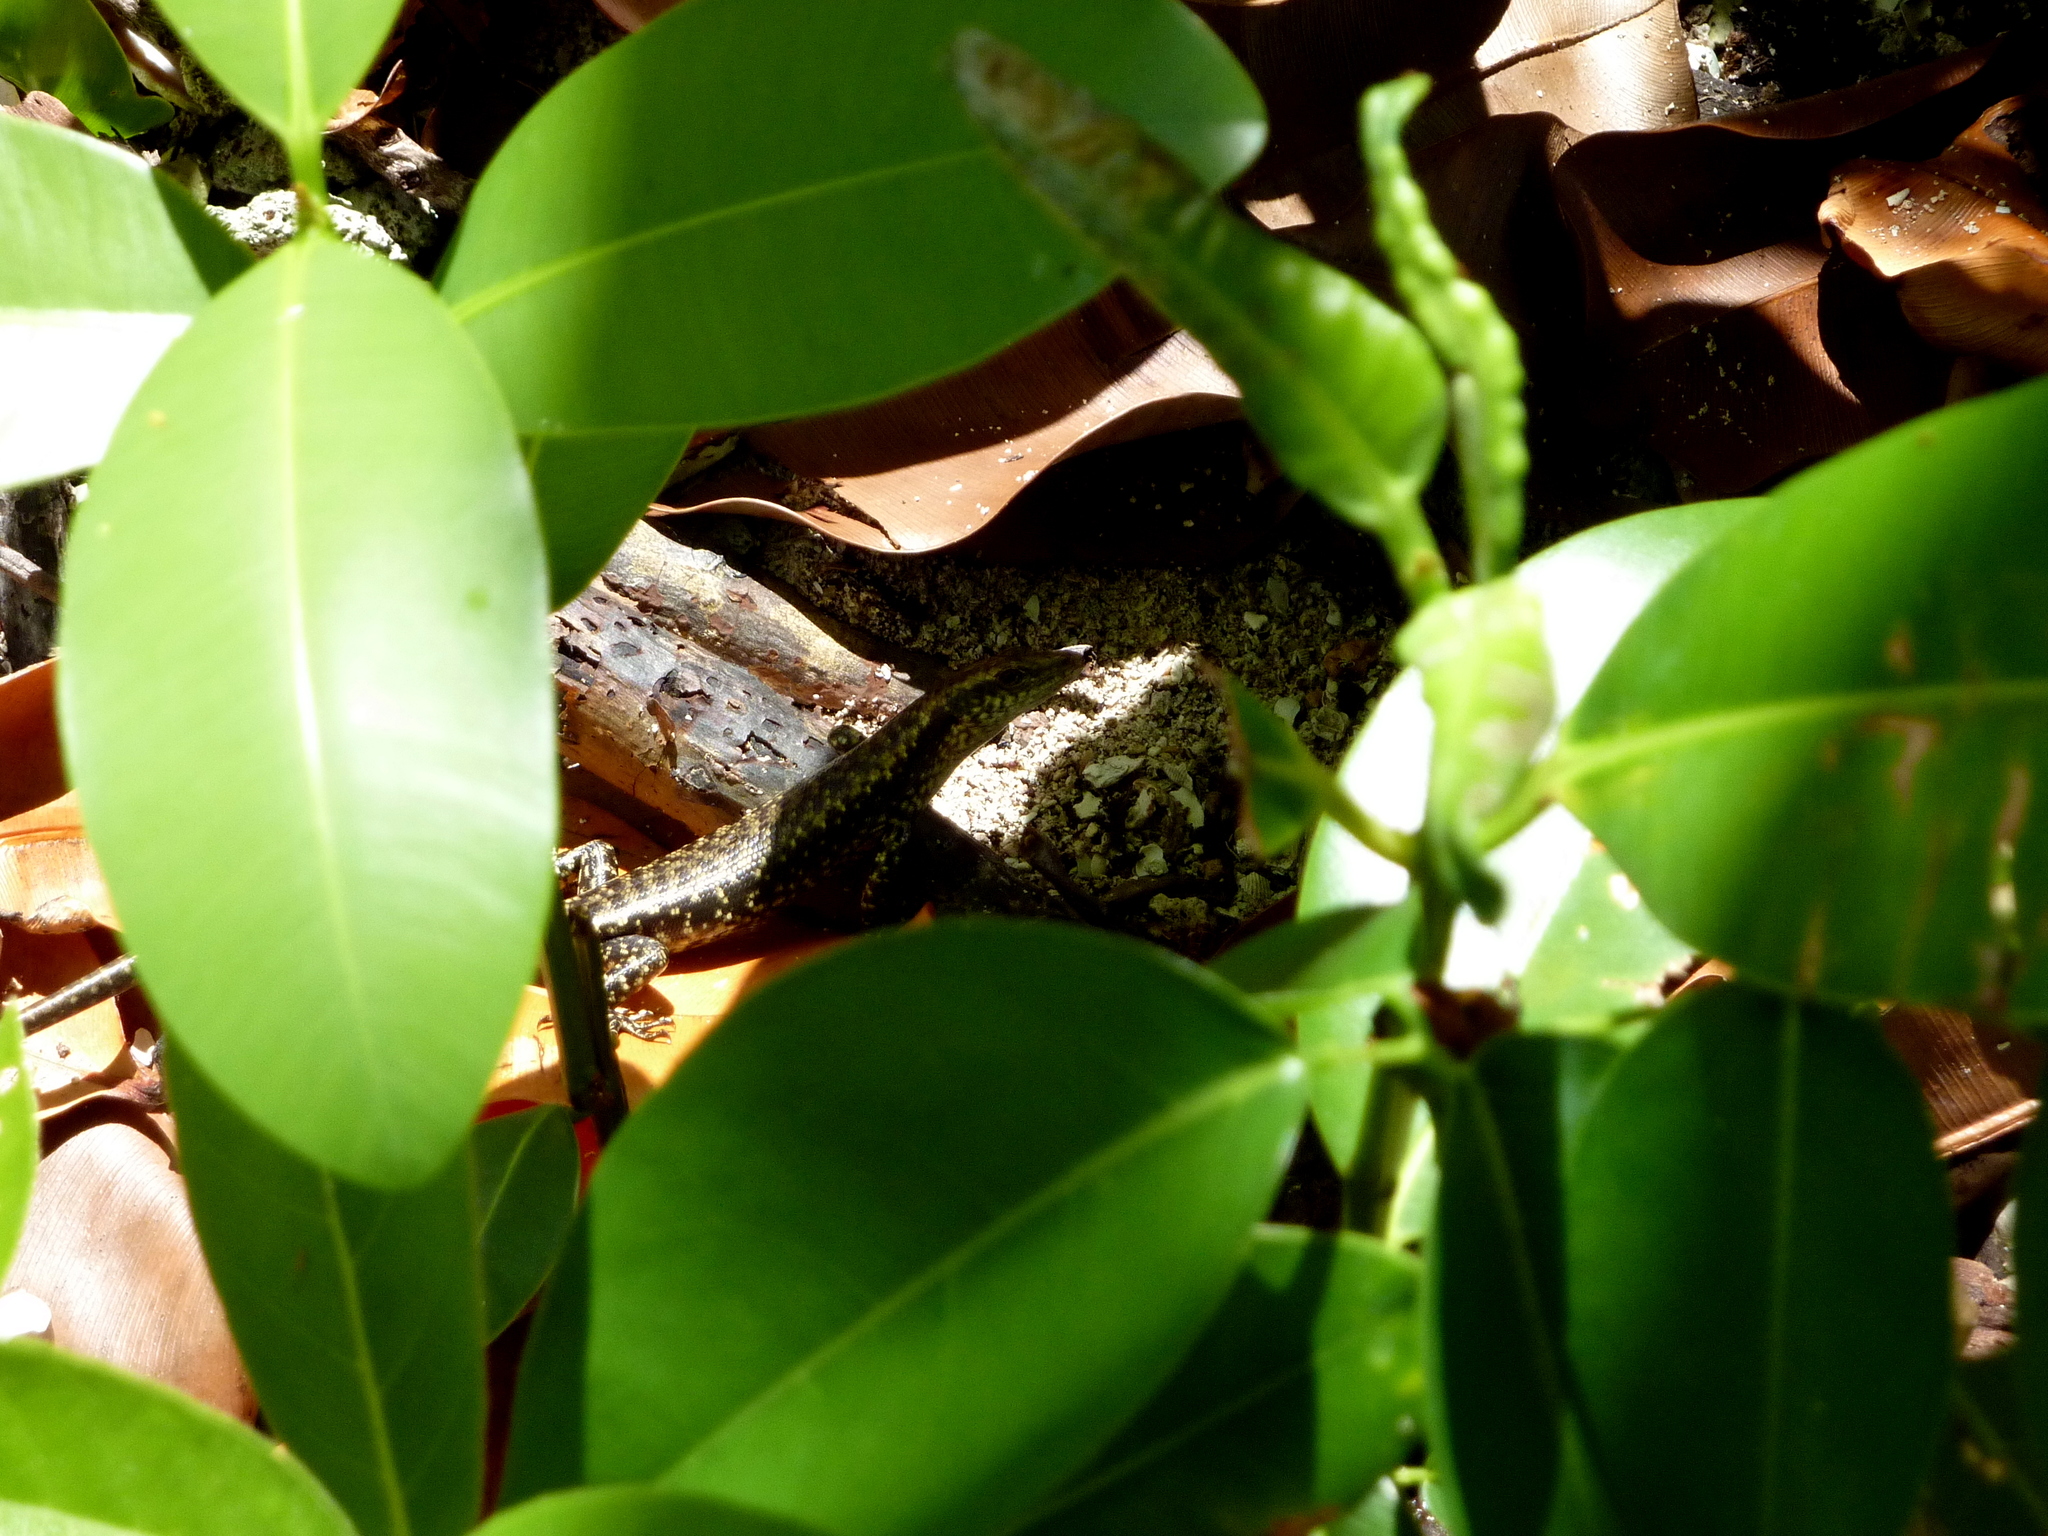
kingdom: Animalia
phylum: Chordata
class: Squamata
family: Scincidae
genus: Emoia
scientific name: Emoia atrocostata
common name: Littoral skink
